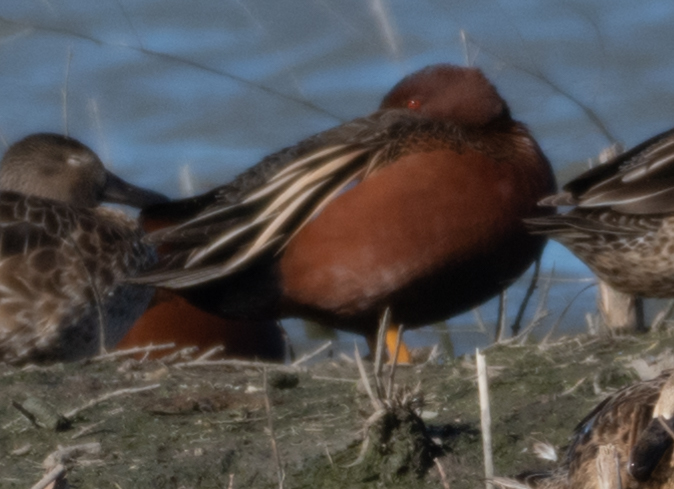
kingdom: Animalia
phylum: Chordata
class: Aves
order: Anseriformes
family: Anatidae
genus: Spatula
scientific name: Spatula cyanoptera
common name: Cinnamon teal
